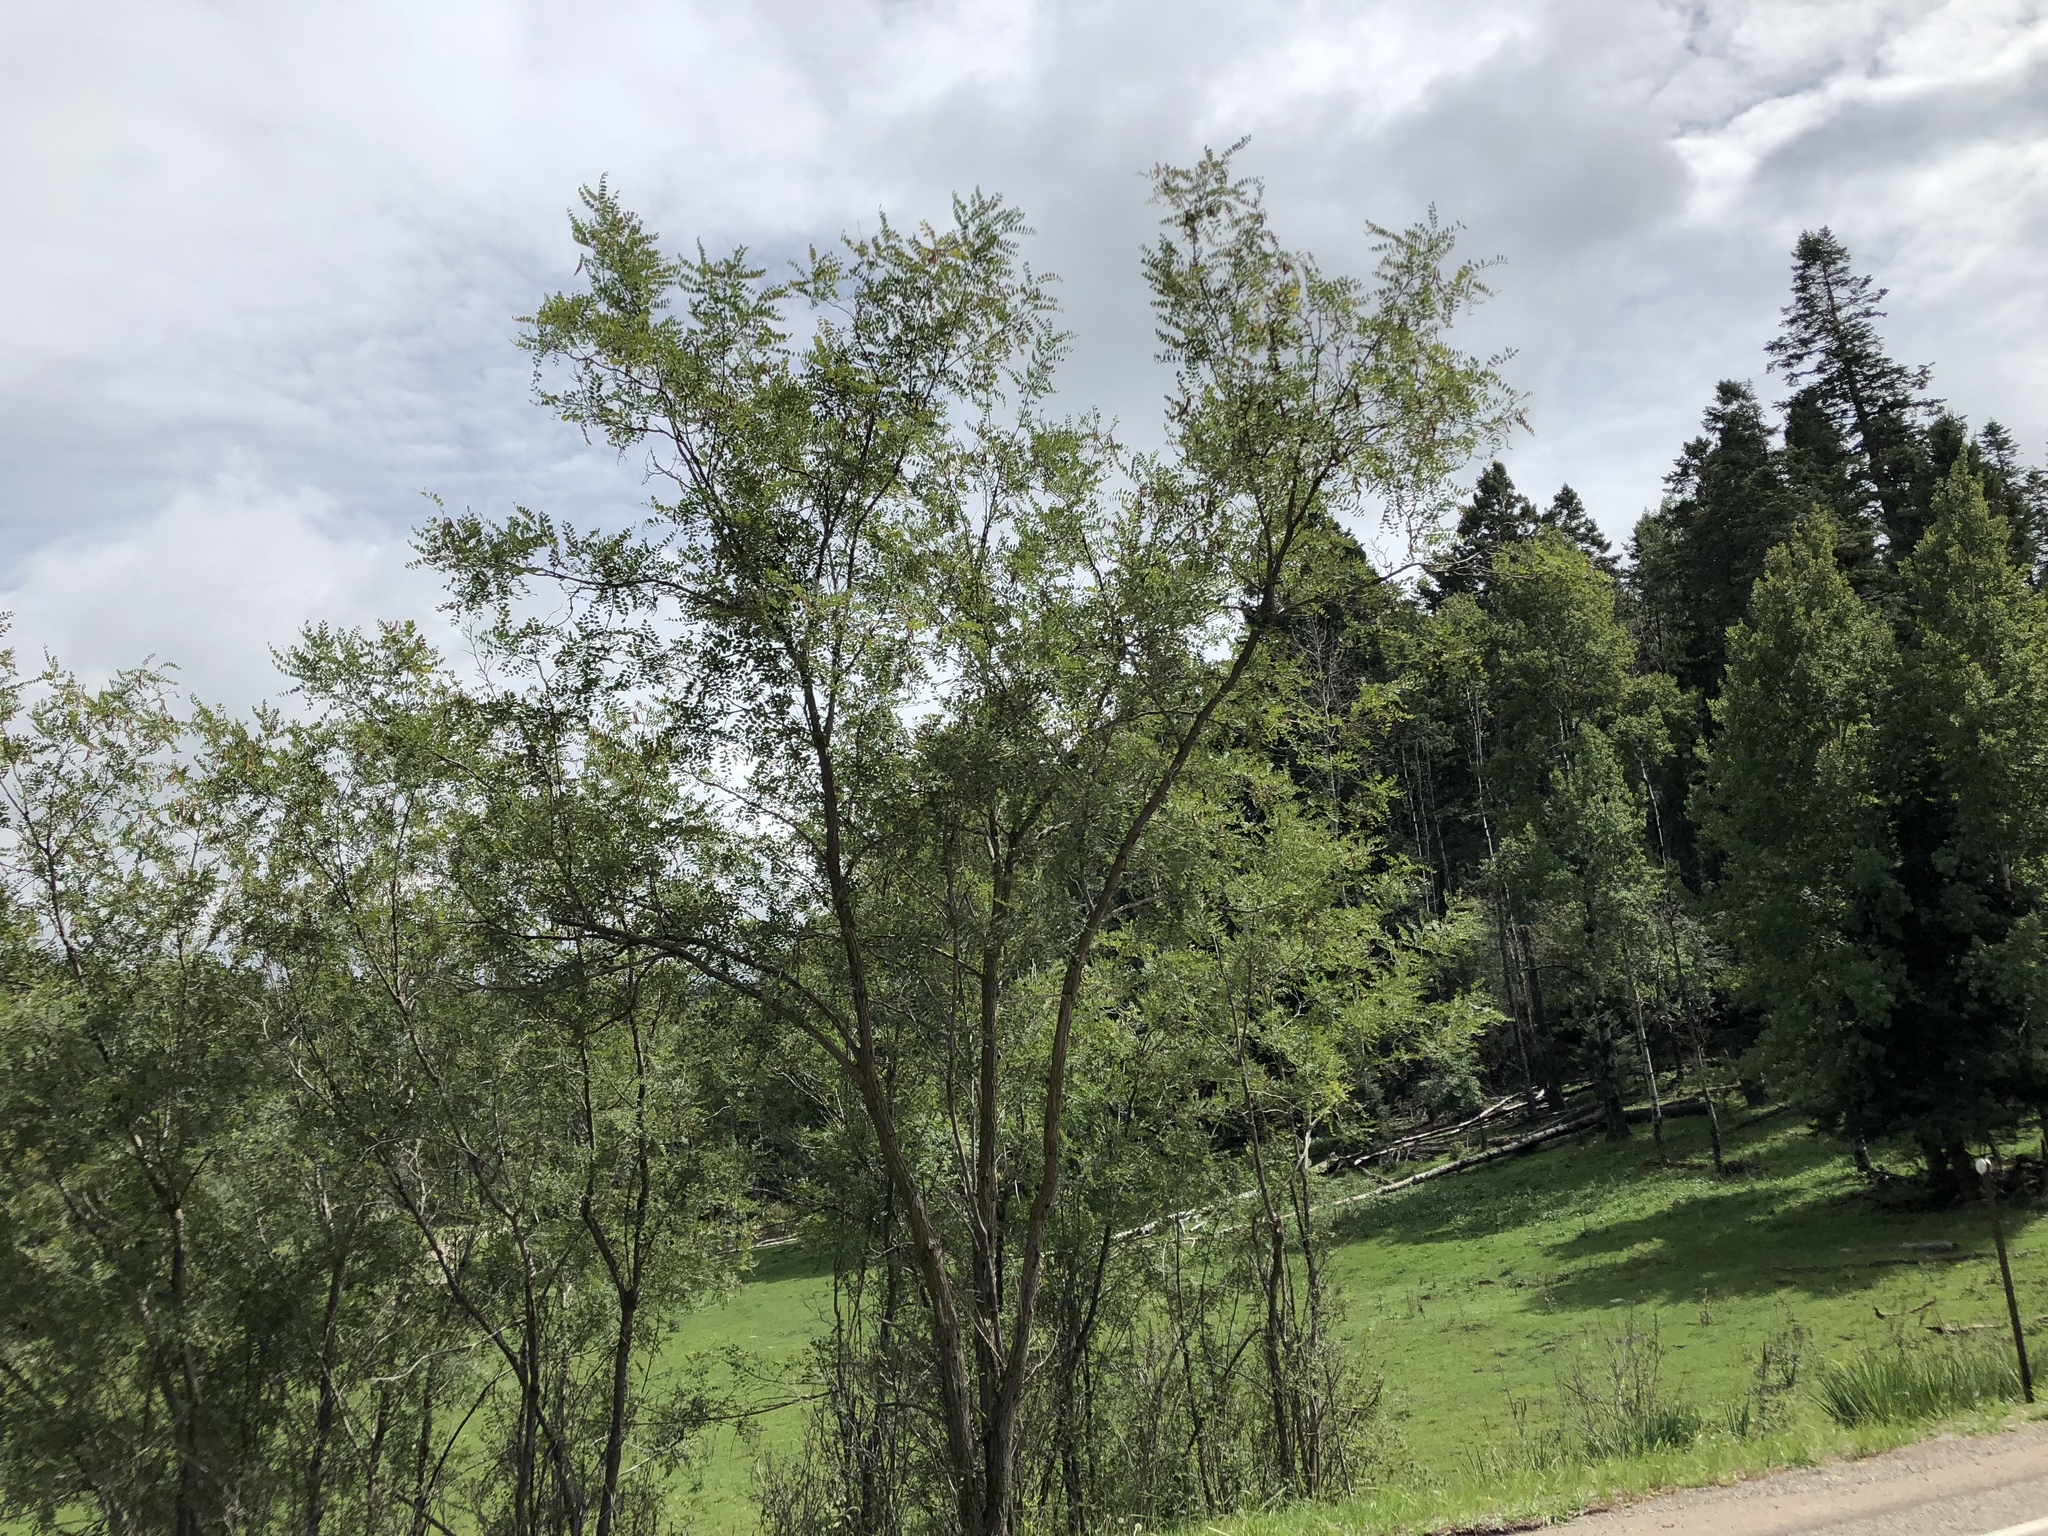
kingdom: Plantae
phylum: Tracheophyta
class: Magnoliopsida
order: Fabales
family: Fabaceae
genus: Robinia
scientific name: Robinia neomexicana
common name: New mexico locust
